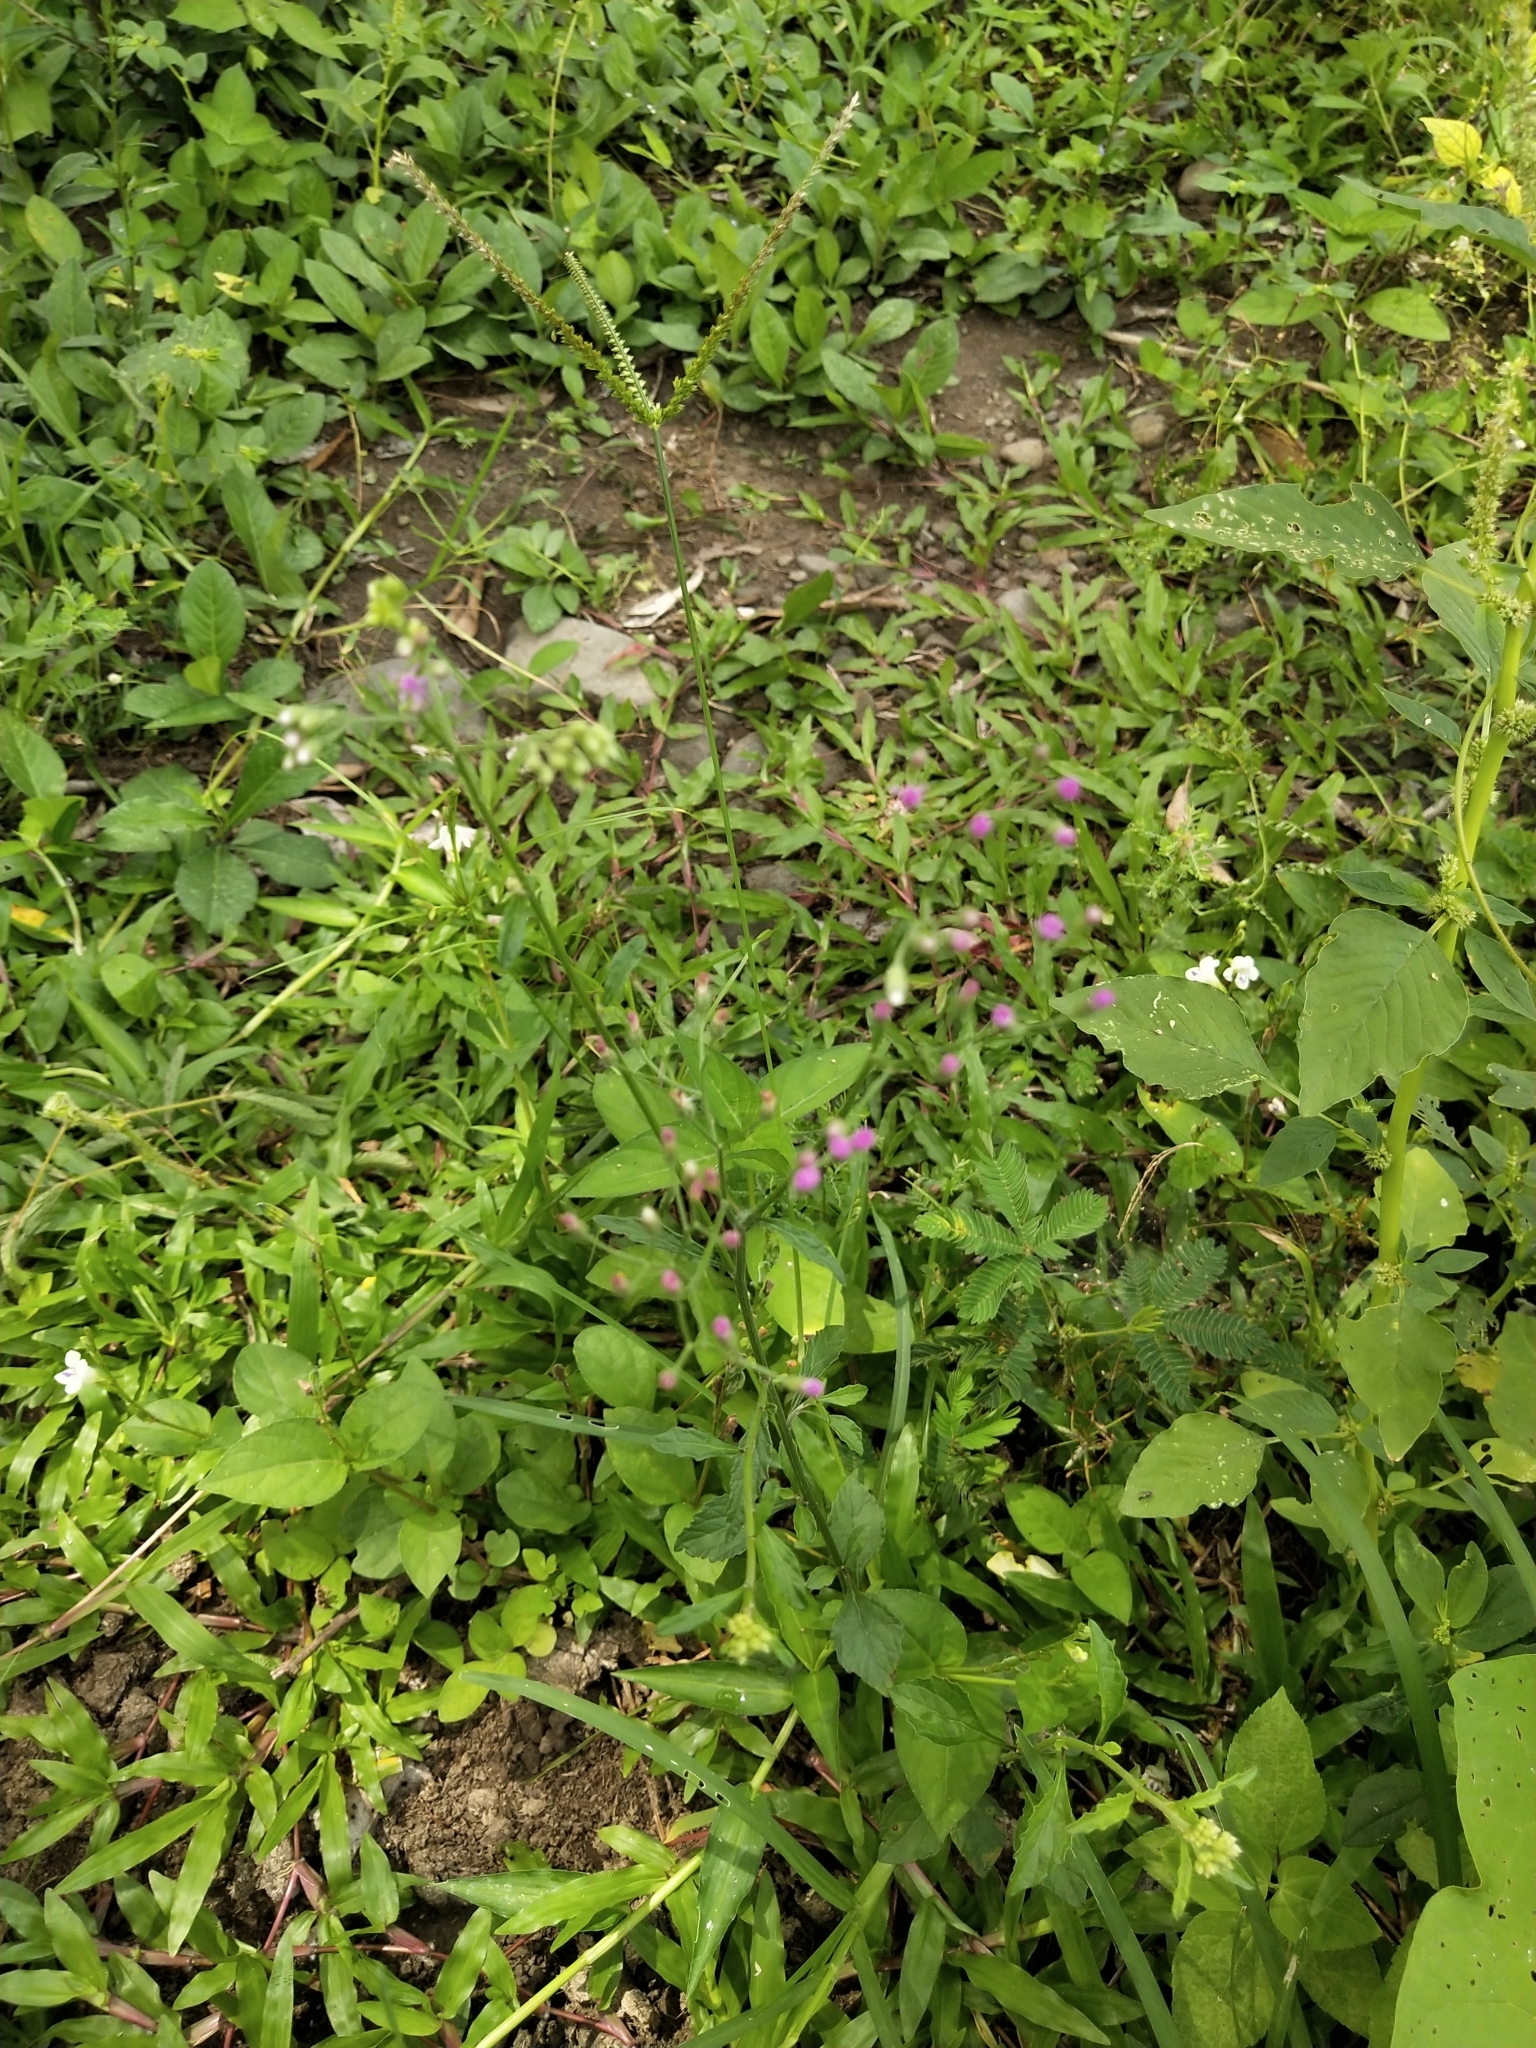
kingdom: Plantae
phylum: Tracheophyta
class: Magnoliopsida
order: Asterales
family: Asteraceae
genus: Cyanthillium
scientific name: Cyanthillium cinereum
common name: Little ironweed
